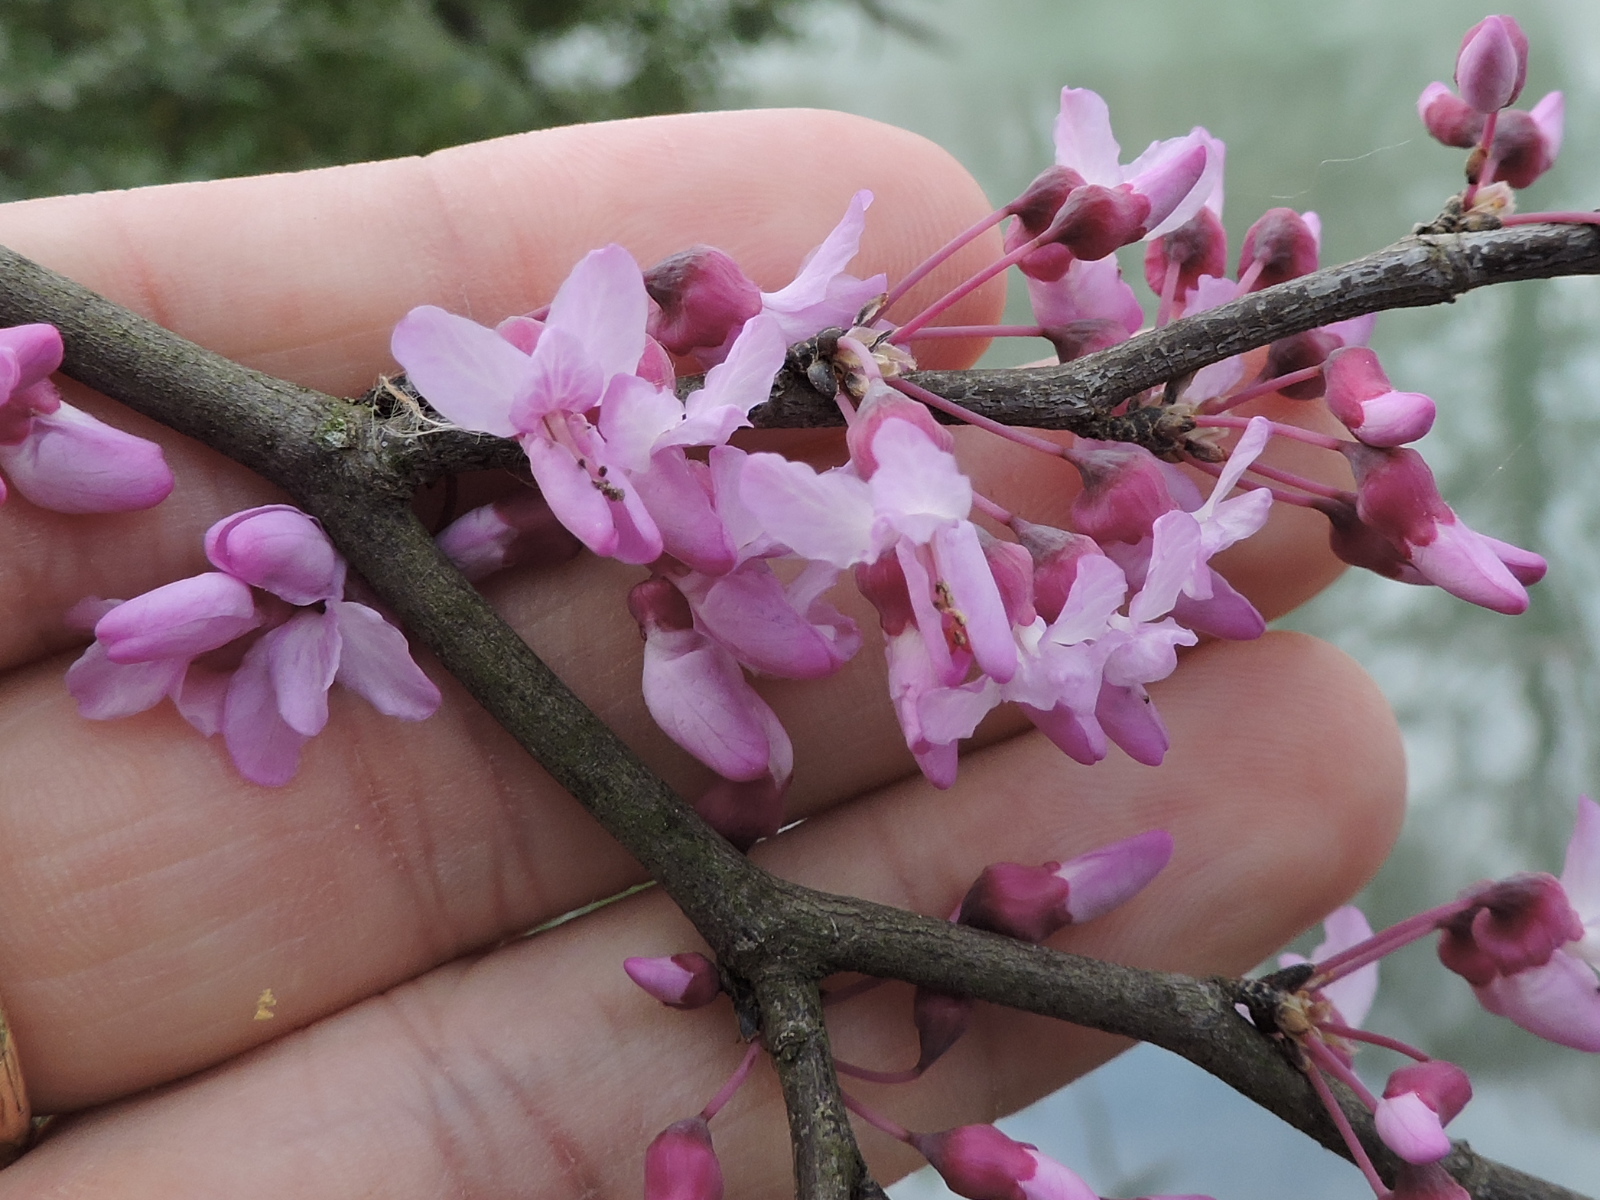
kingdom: Plantae
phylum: Tracheophyta
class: Magnoliopsida
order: Fabales
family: Fabaceae
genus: Cercis
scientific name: Cercis canadensis
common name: Eastern redbud
